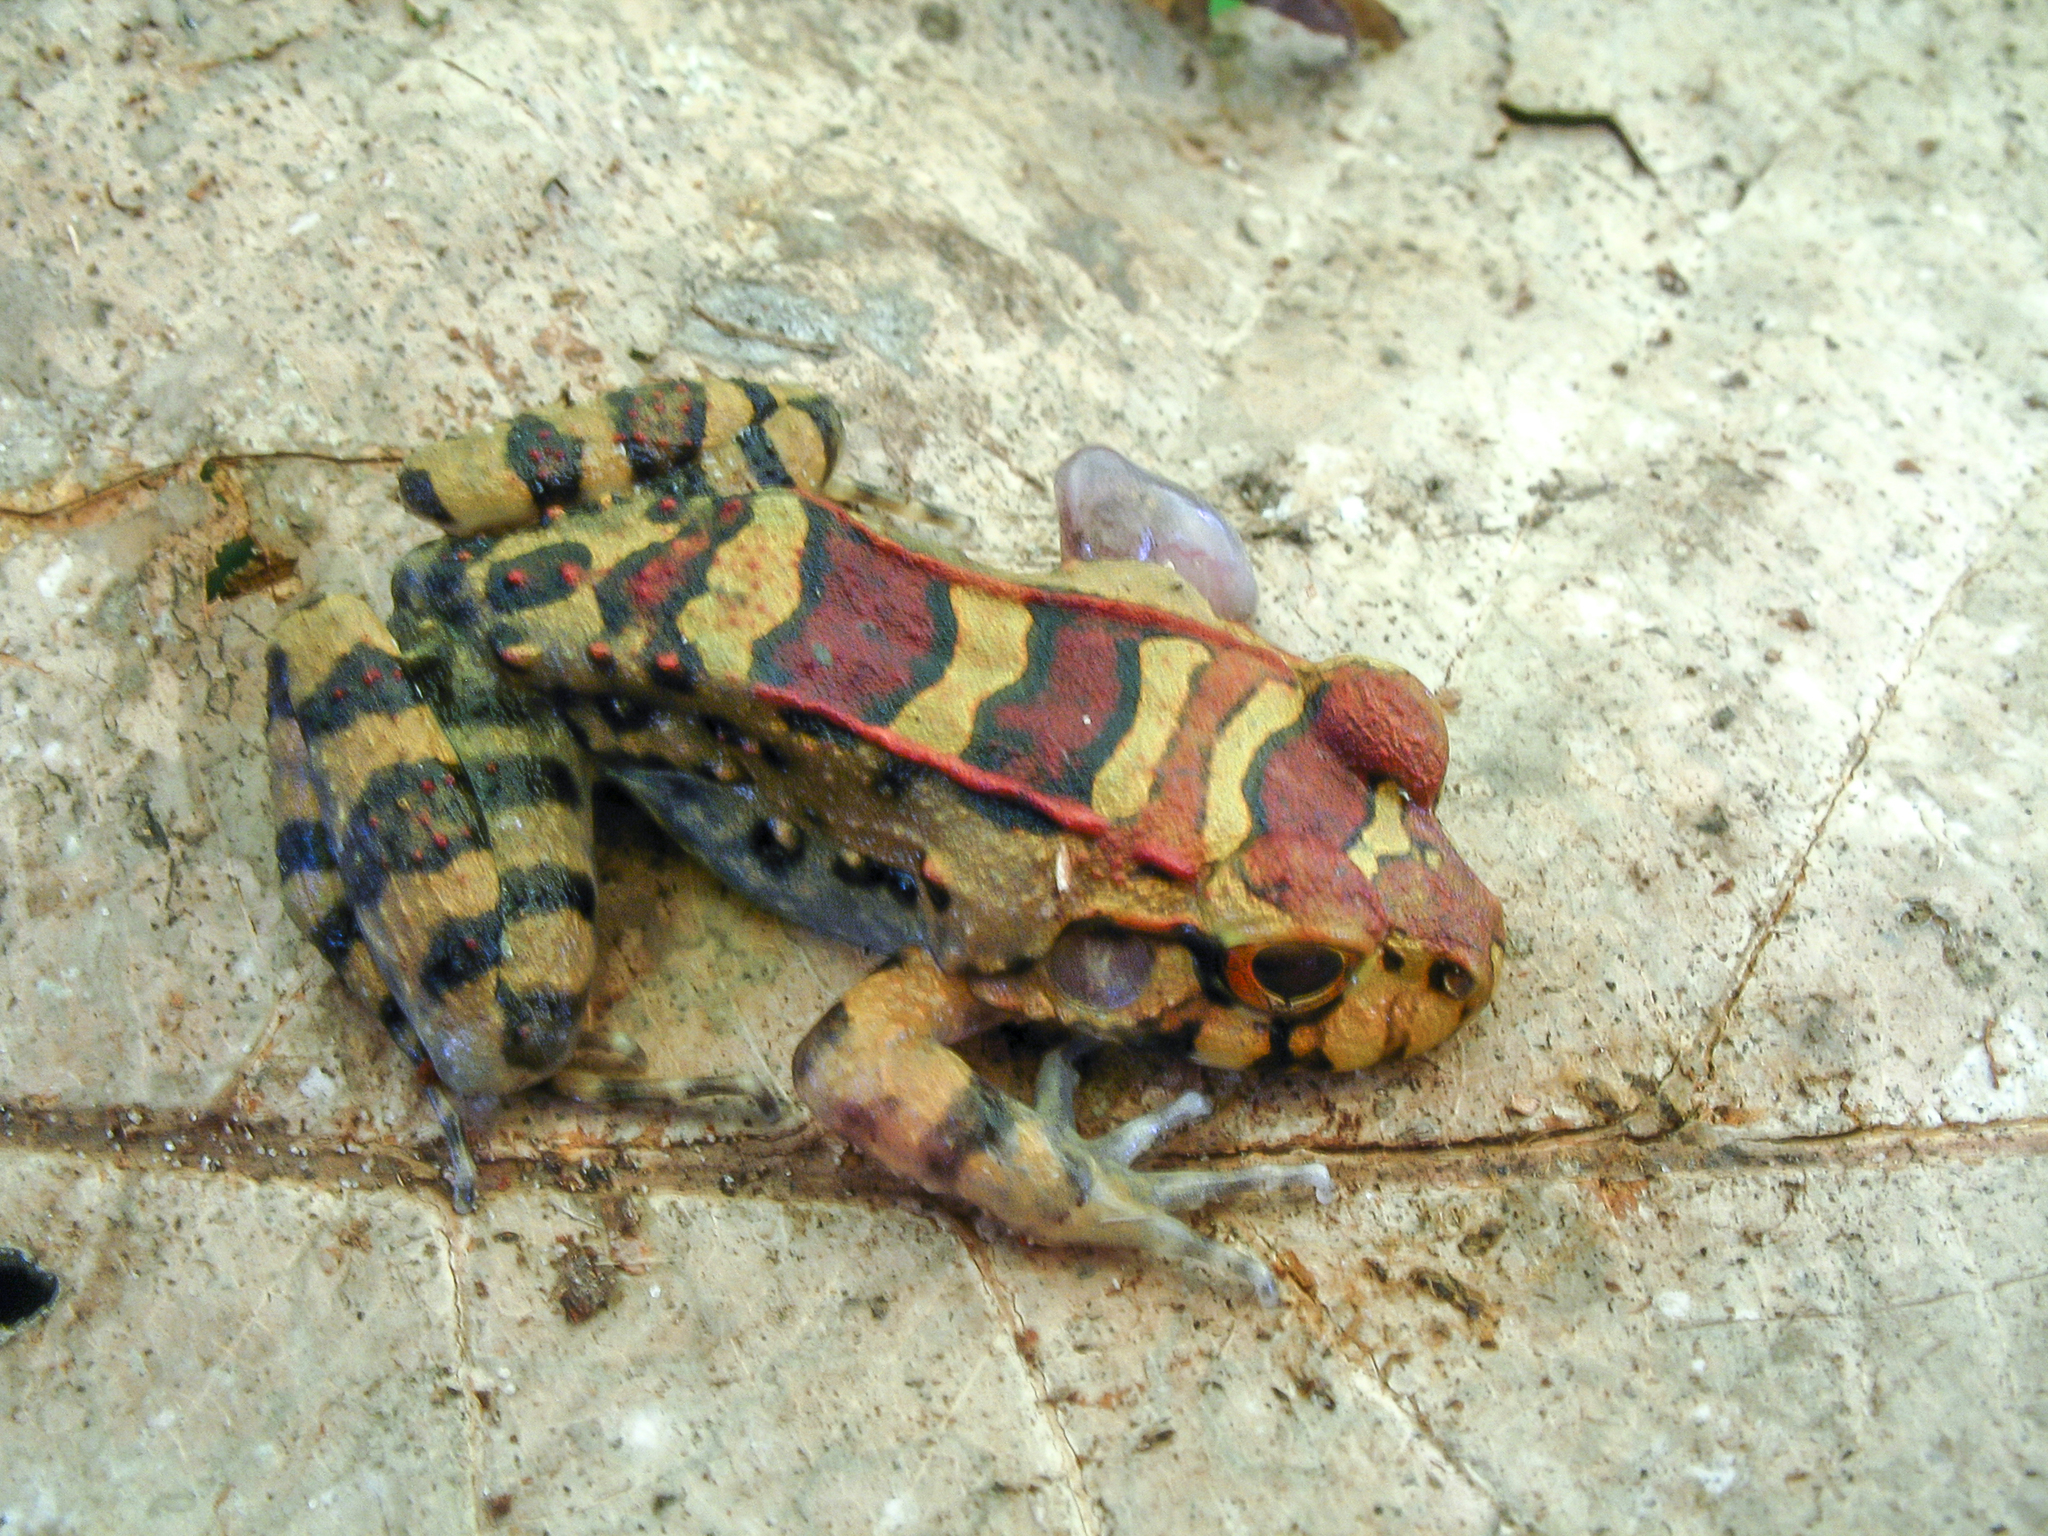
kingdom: Animalia
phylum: Chordata
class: Amphibia
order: Anura
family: Leptodactylidae
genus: Leptodactylus
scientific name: Leptodactylus knudseni
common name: Knudsen's frog
